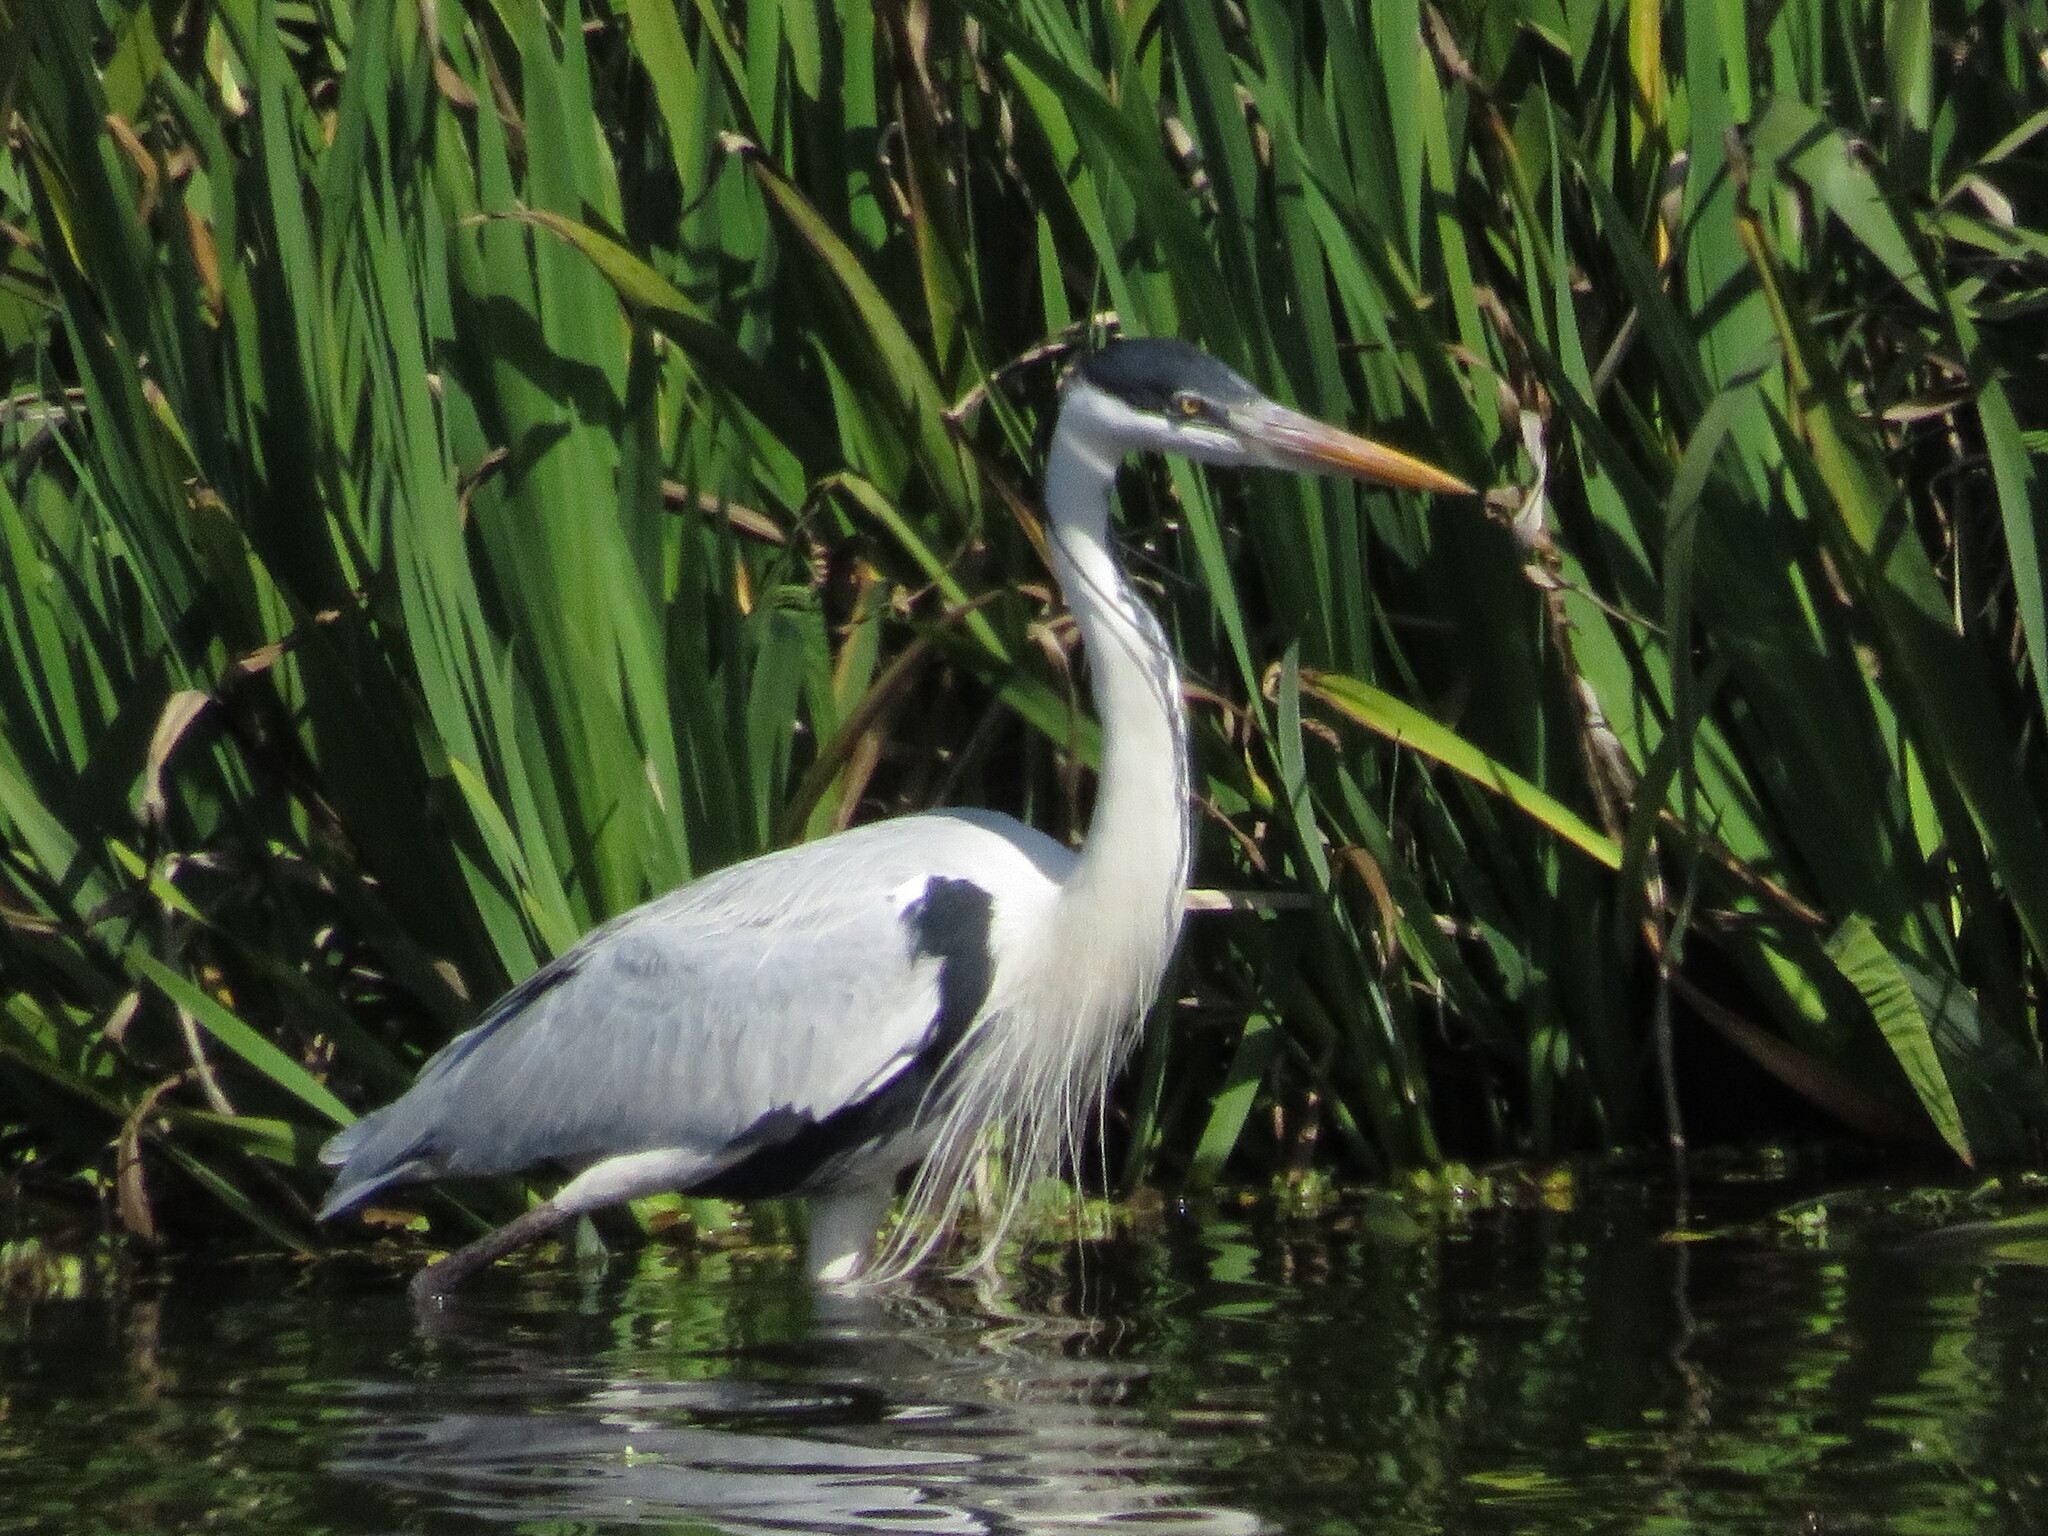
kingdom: Animalia
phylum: Chordata
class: Aves
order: Pelecaniformes
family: Ardeidae
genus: Ardea
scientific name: Ardea cocoi
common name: Cocoi heron
